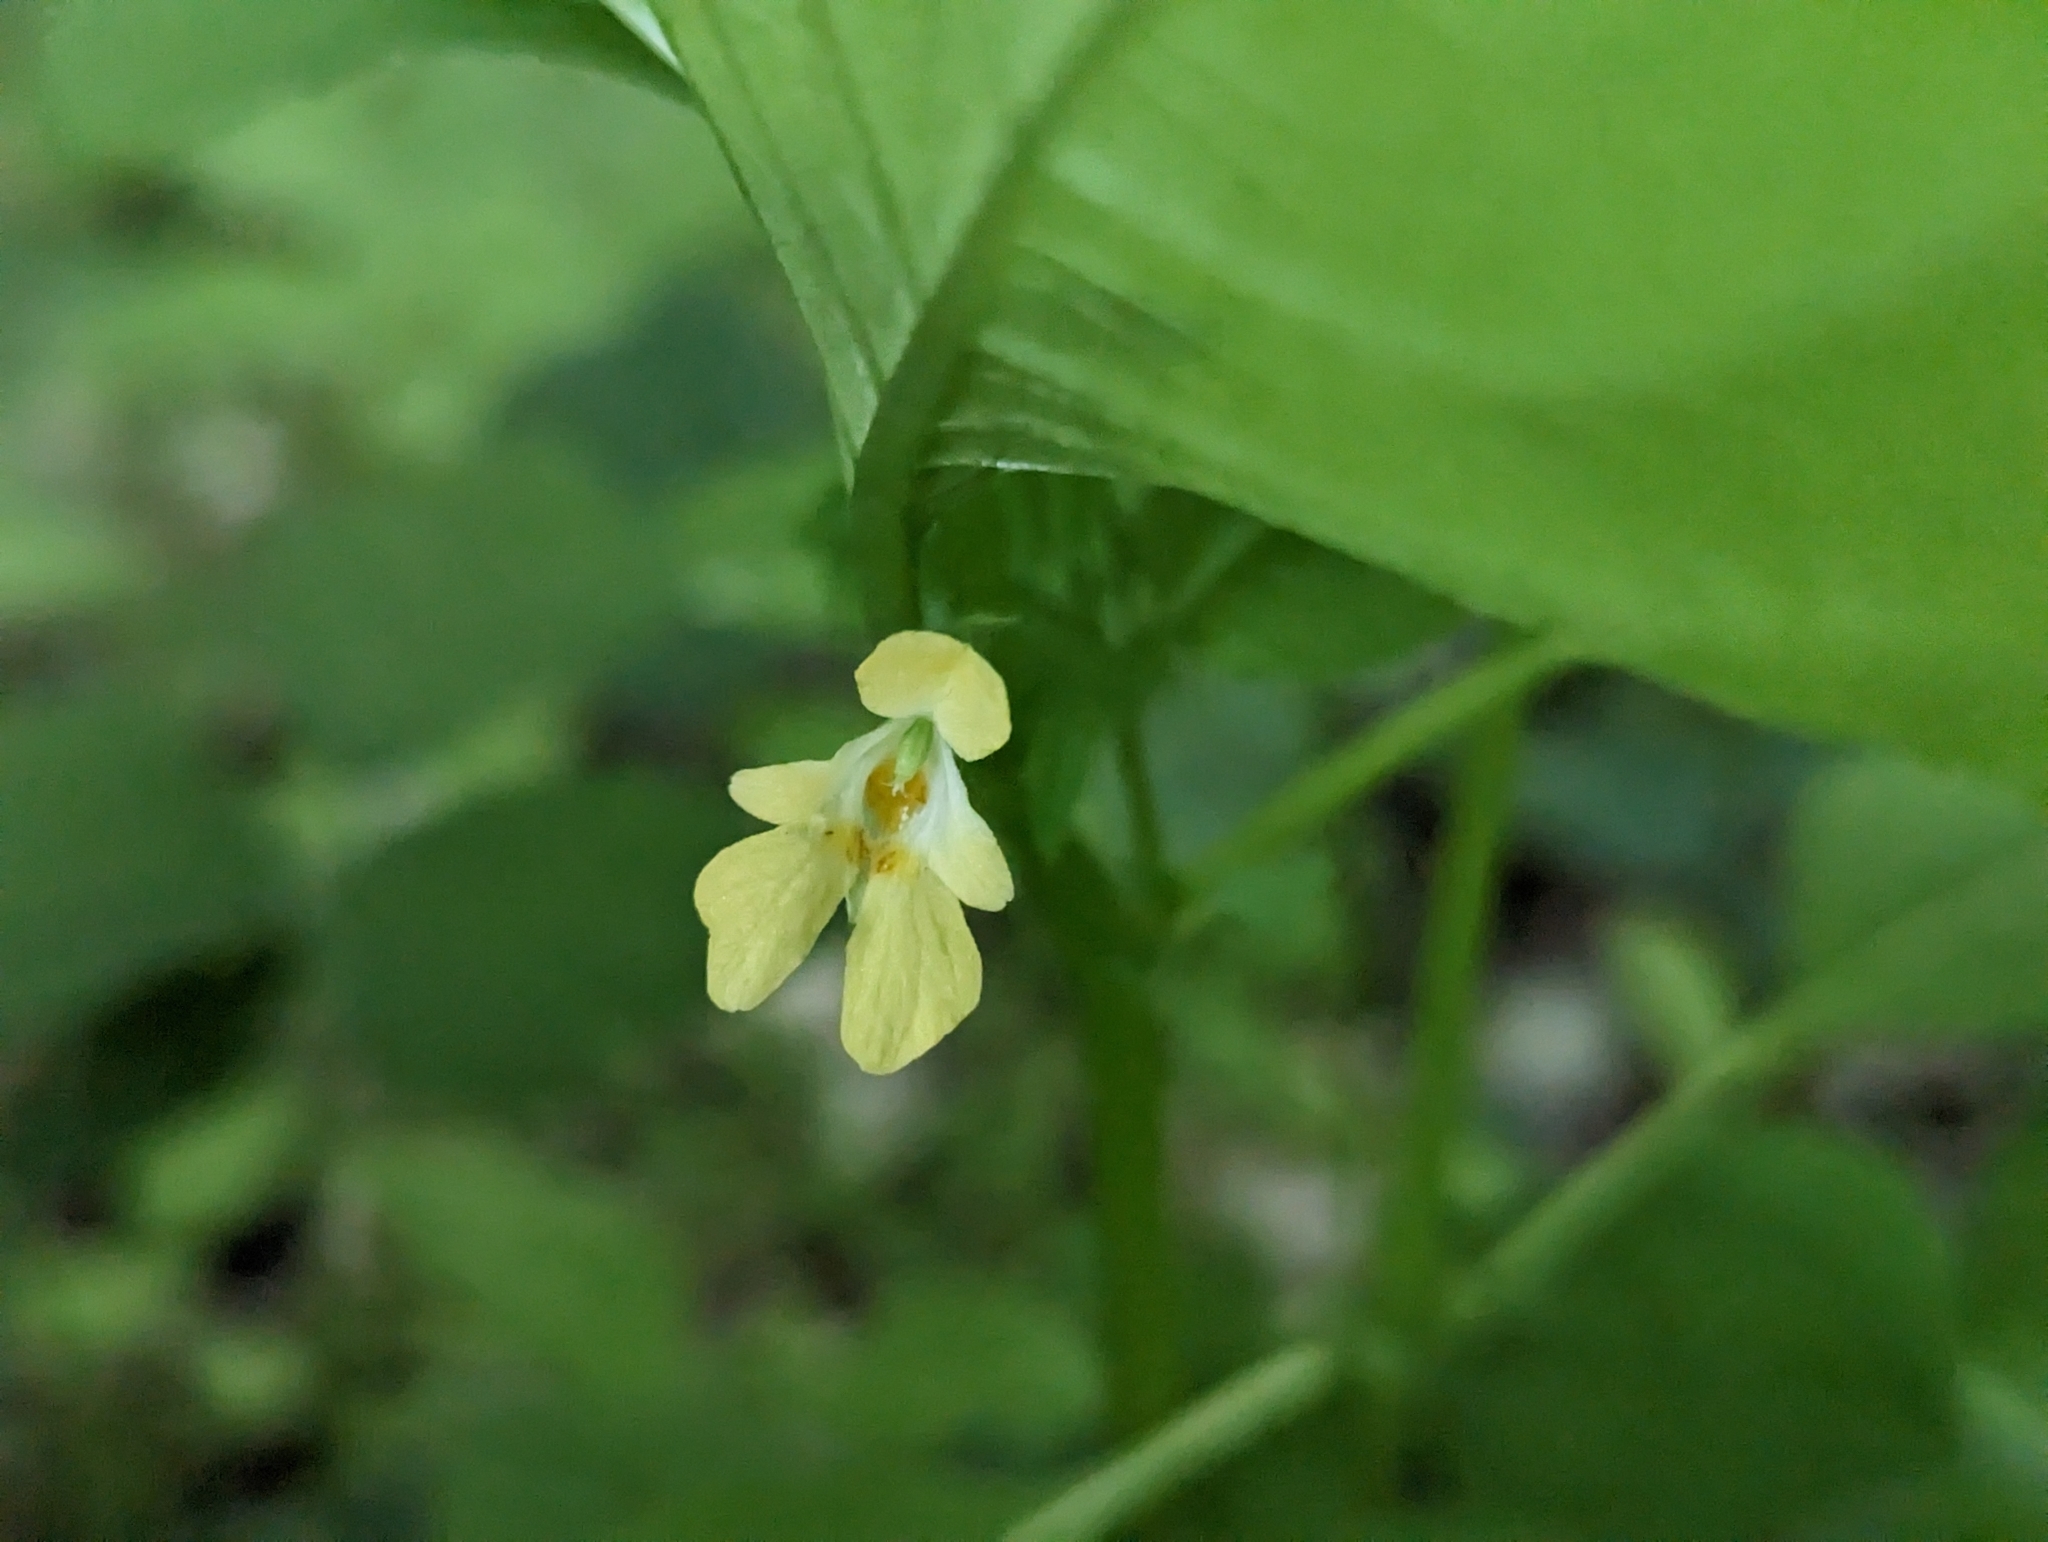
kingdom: Plantae
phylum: Tracheophyta
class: Magnoliopsida
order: Ericales
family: Balsaminaceae
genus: Impatiens
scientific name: Impatiens parviflora
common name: Small balsam
